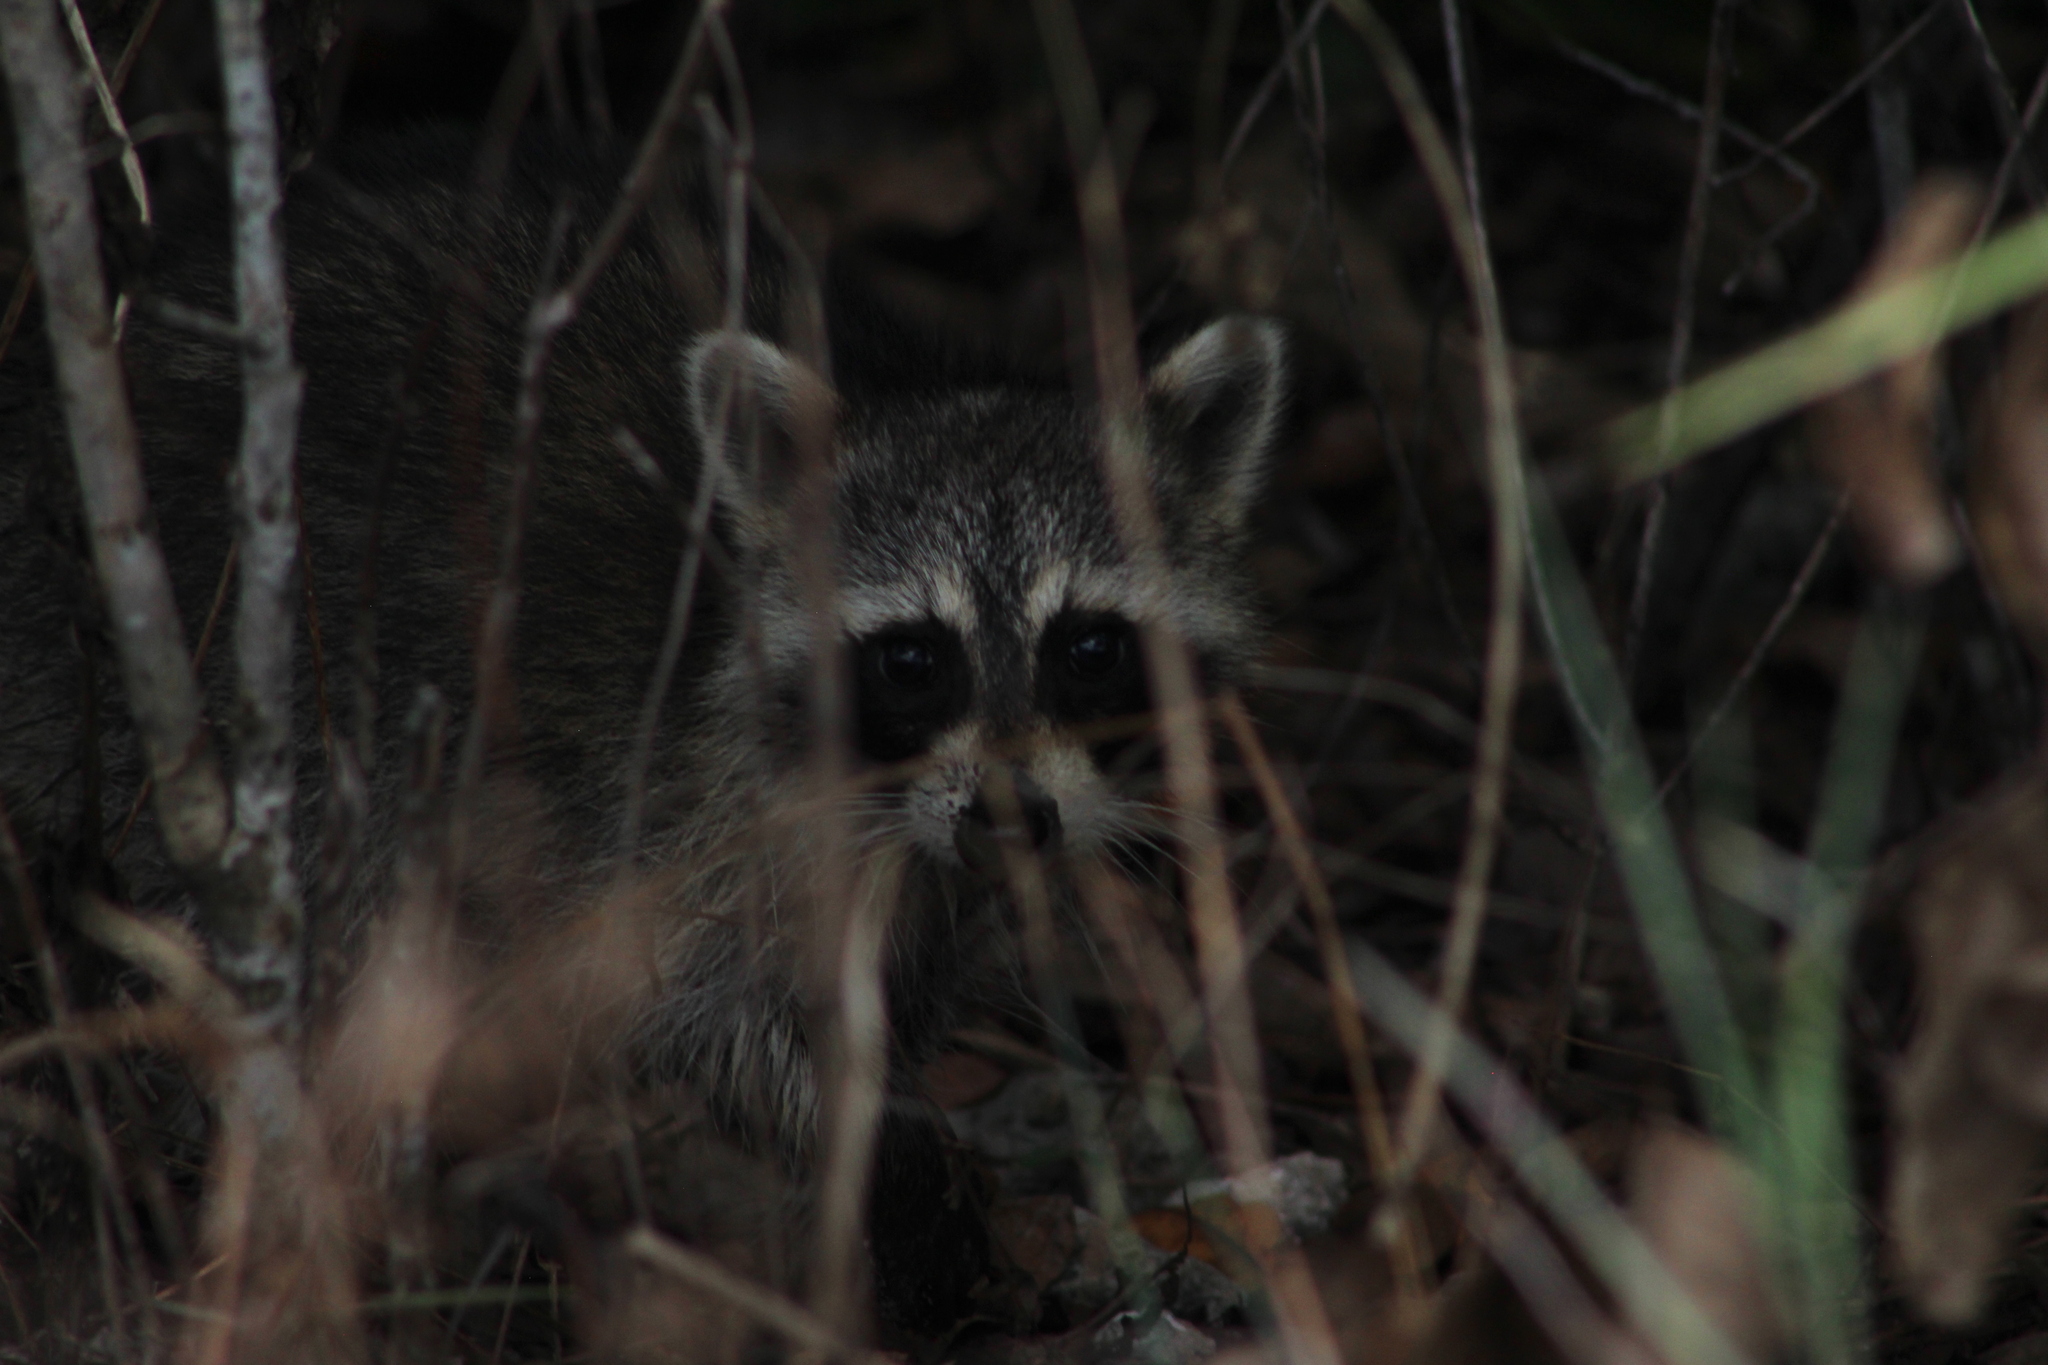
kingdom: Animalia
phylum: Chordata
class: Mammalia
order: Carnivora
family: Procyonidae
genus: Procyon
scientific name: Procyon lotor
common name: Raccoon
